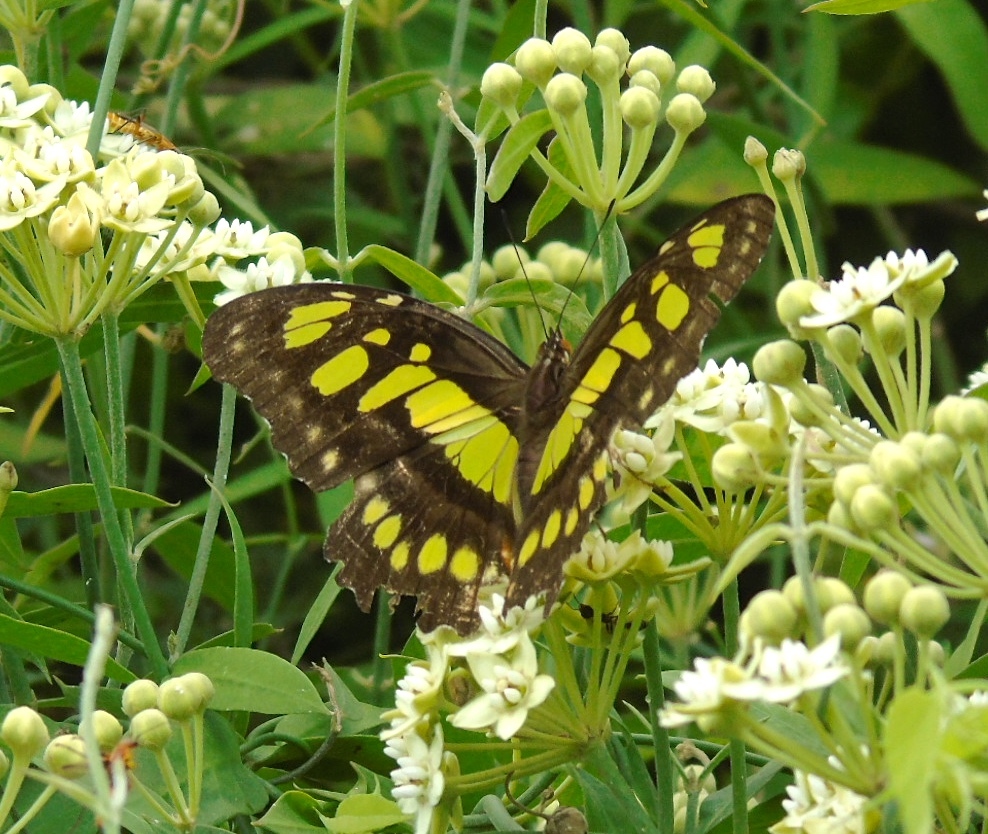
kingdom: Animalia
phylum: Arthropoda
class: Insecta
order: Lepidoptera
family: Nymphalidae
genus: Siproeta
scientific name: Siproeta stelenes
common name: Malachite
